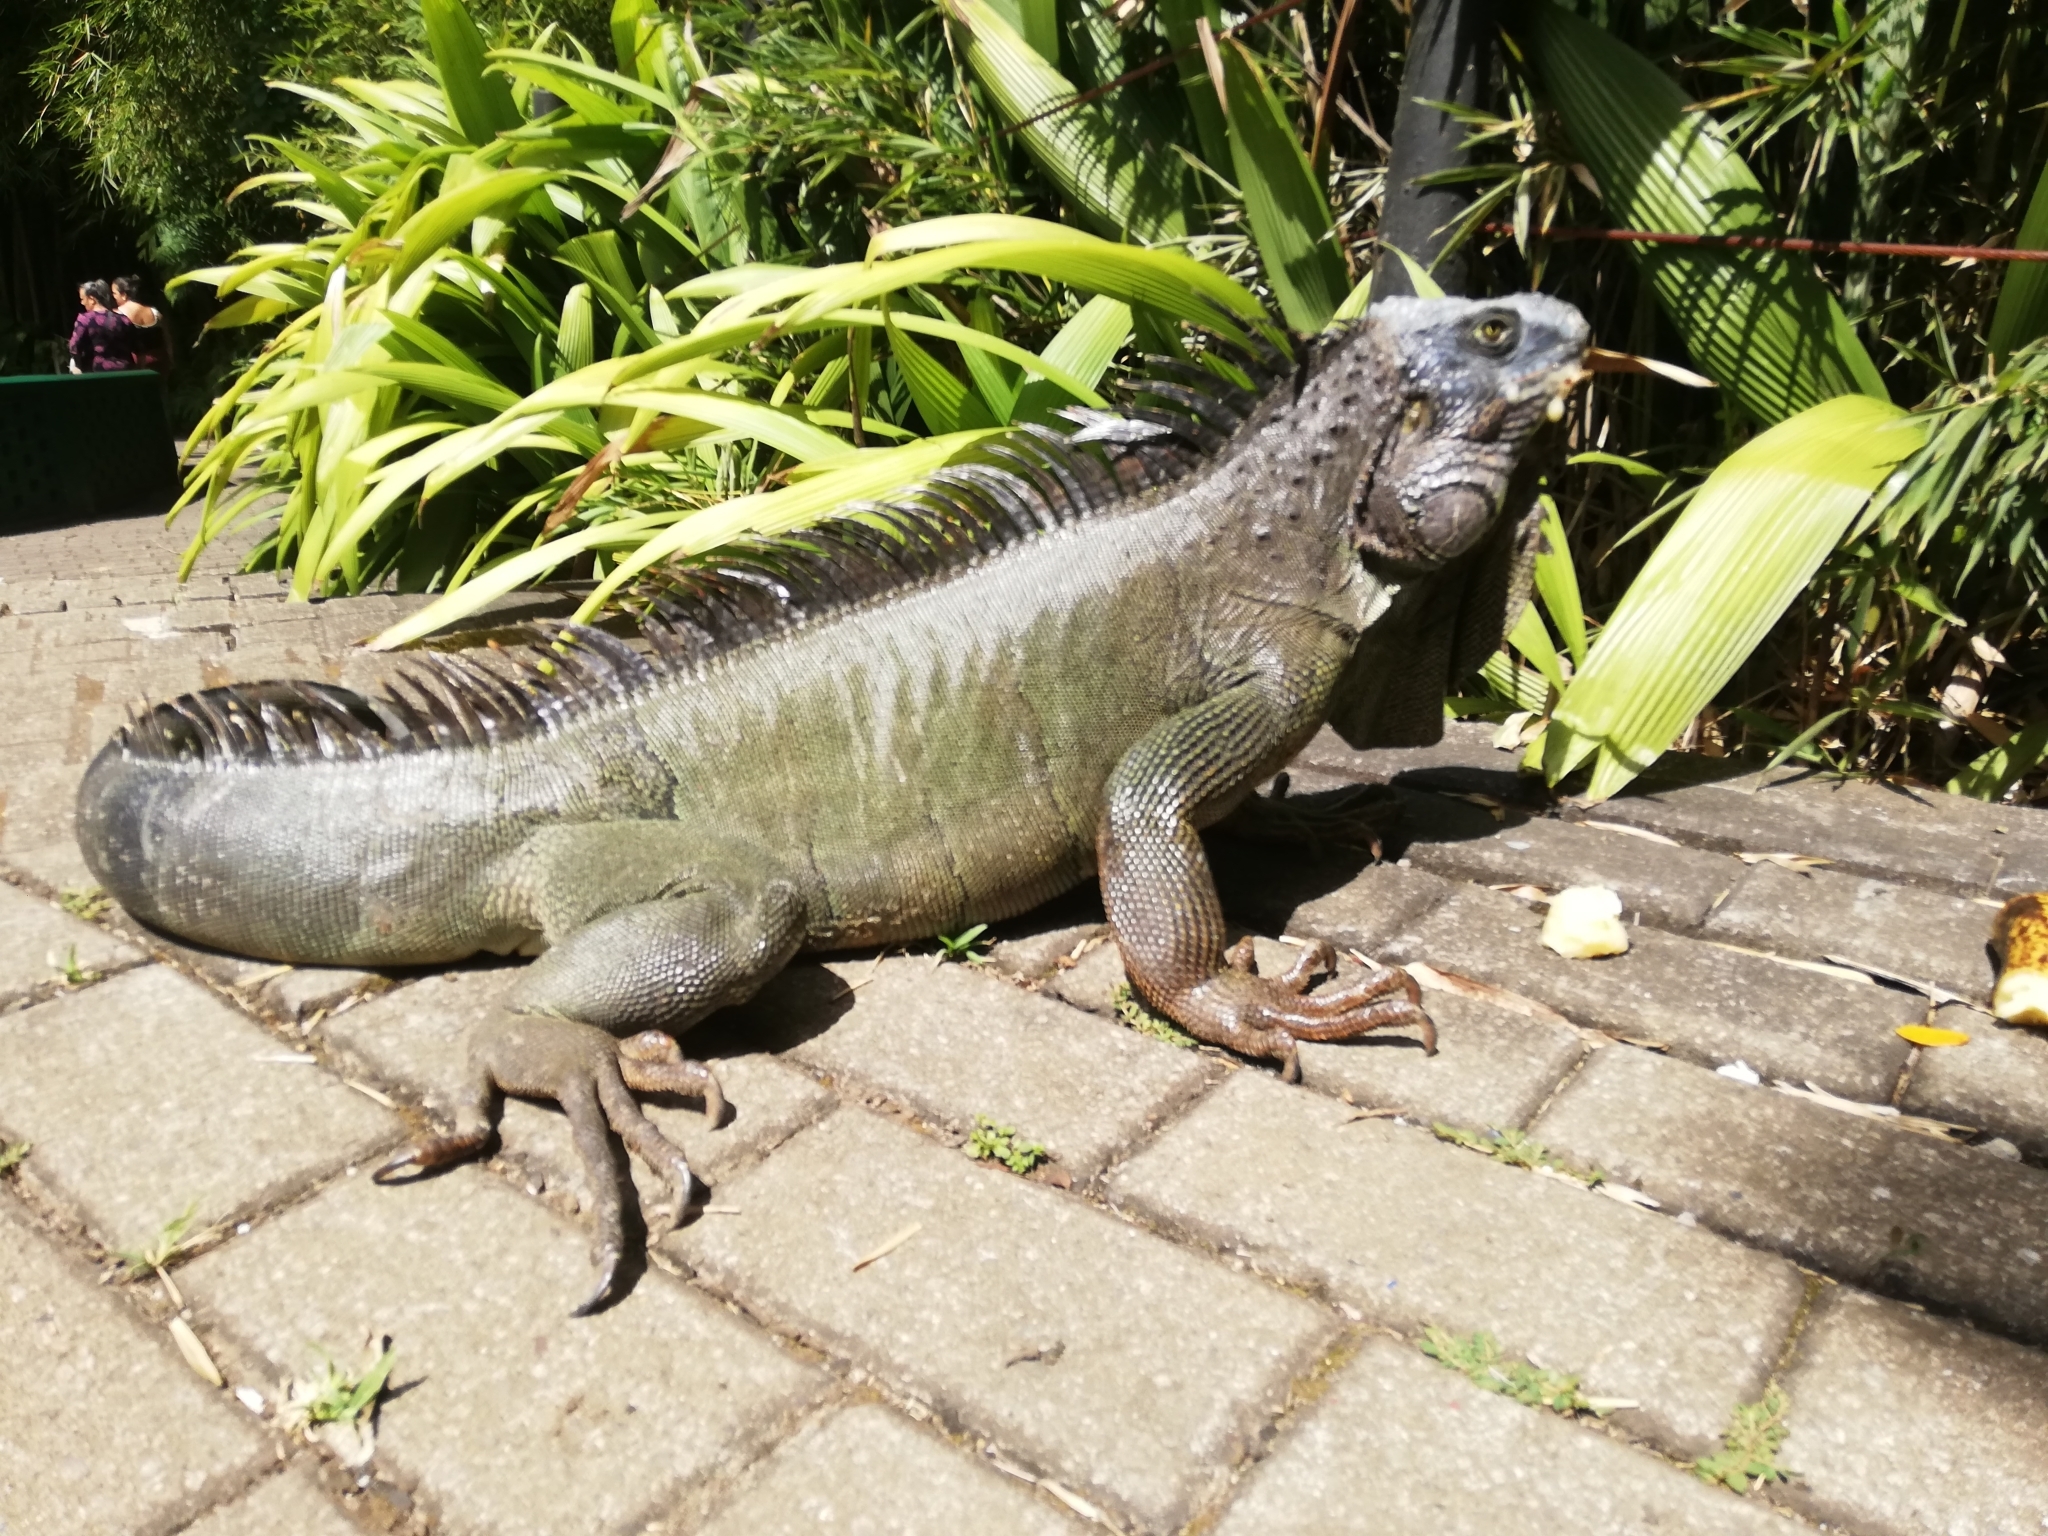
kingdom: Animalia
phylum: Chordata
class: Squamata
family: Iguanidae
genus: Iguana
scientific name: Iguana iguana
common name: Green iguana
